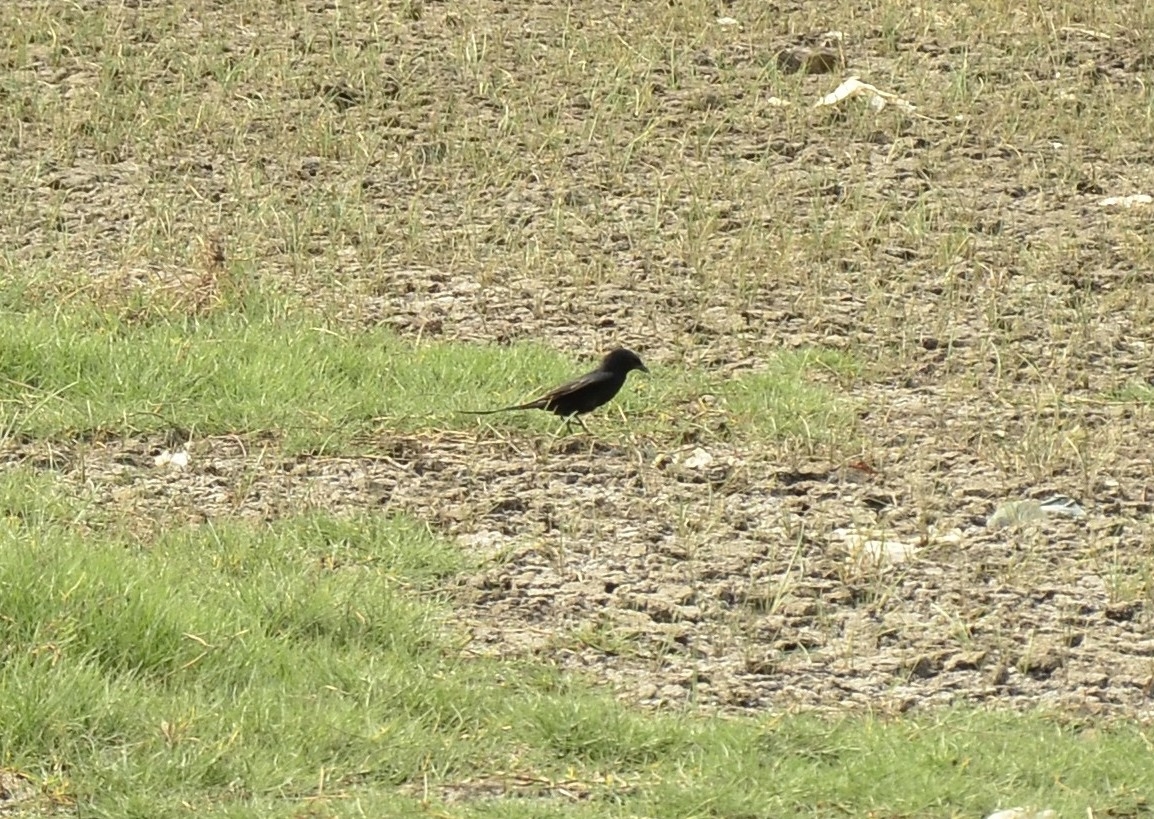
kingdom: Animalia
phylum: Chordata
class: Aves
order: Passeriformes
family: Dicruridae
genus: Dicrurus
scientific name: Dicrurus macrocercus
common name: Black drongo
